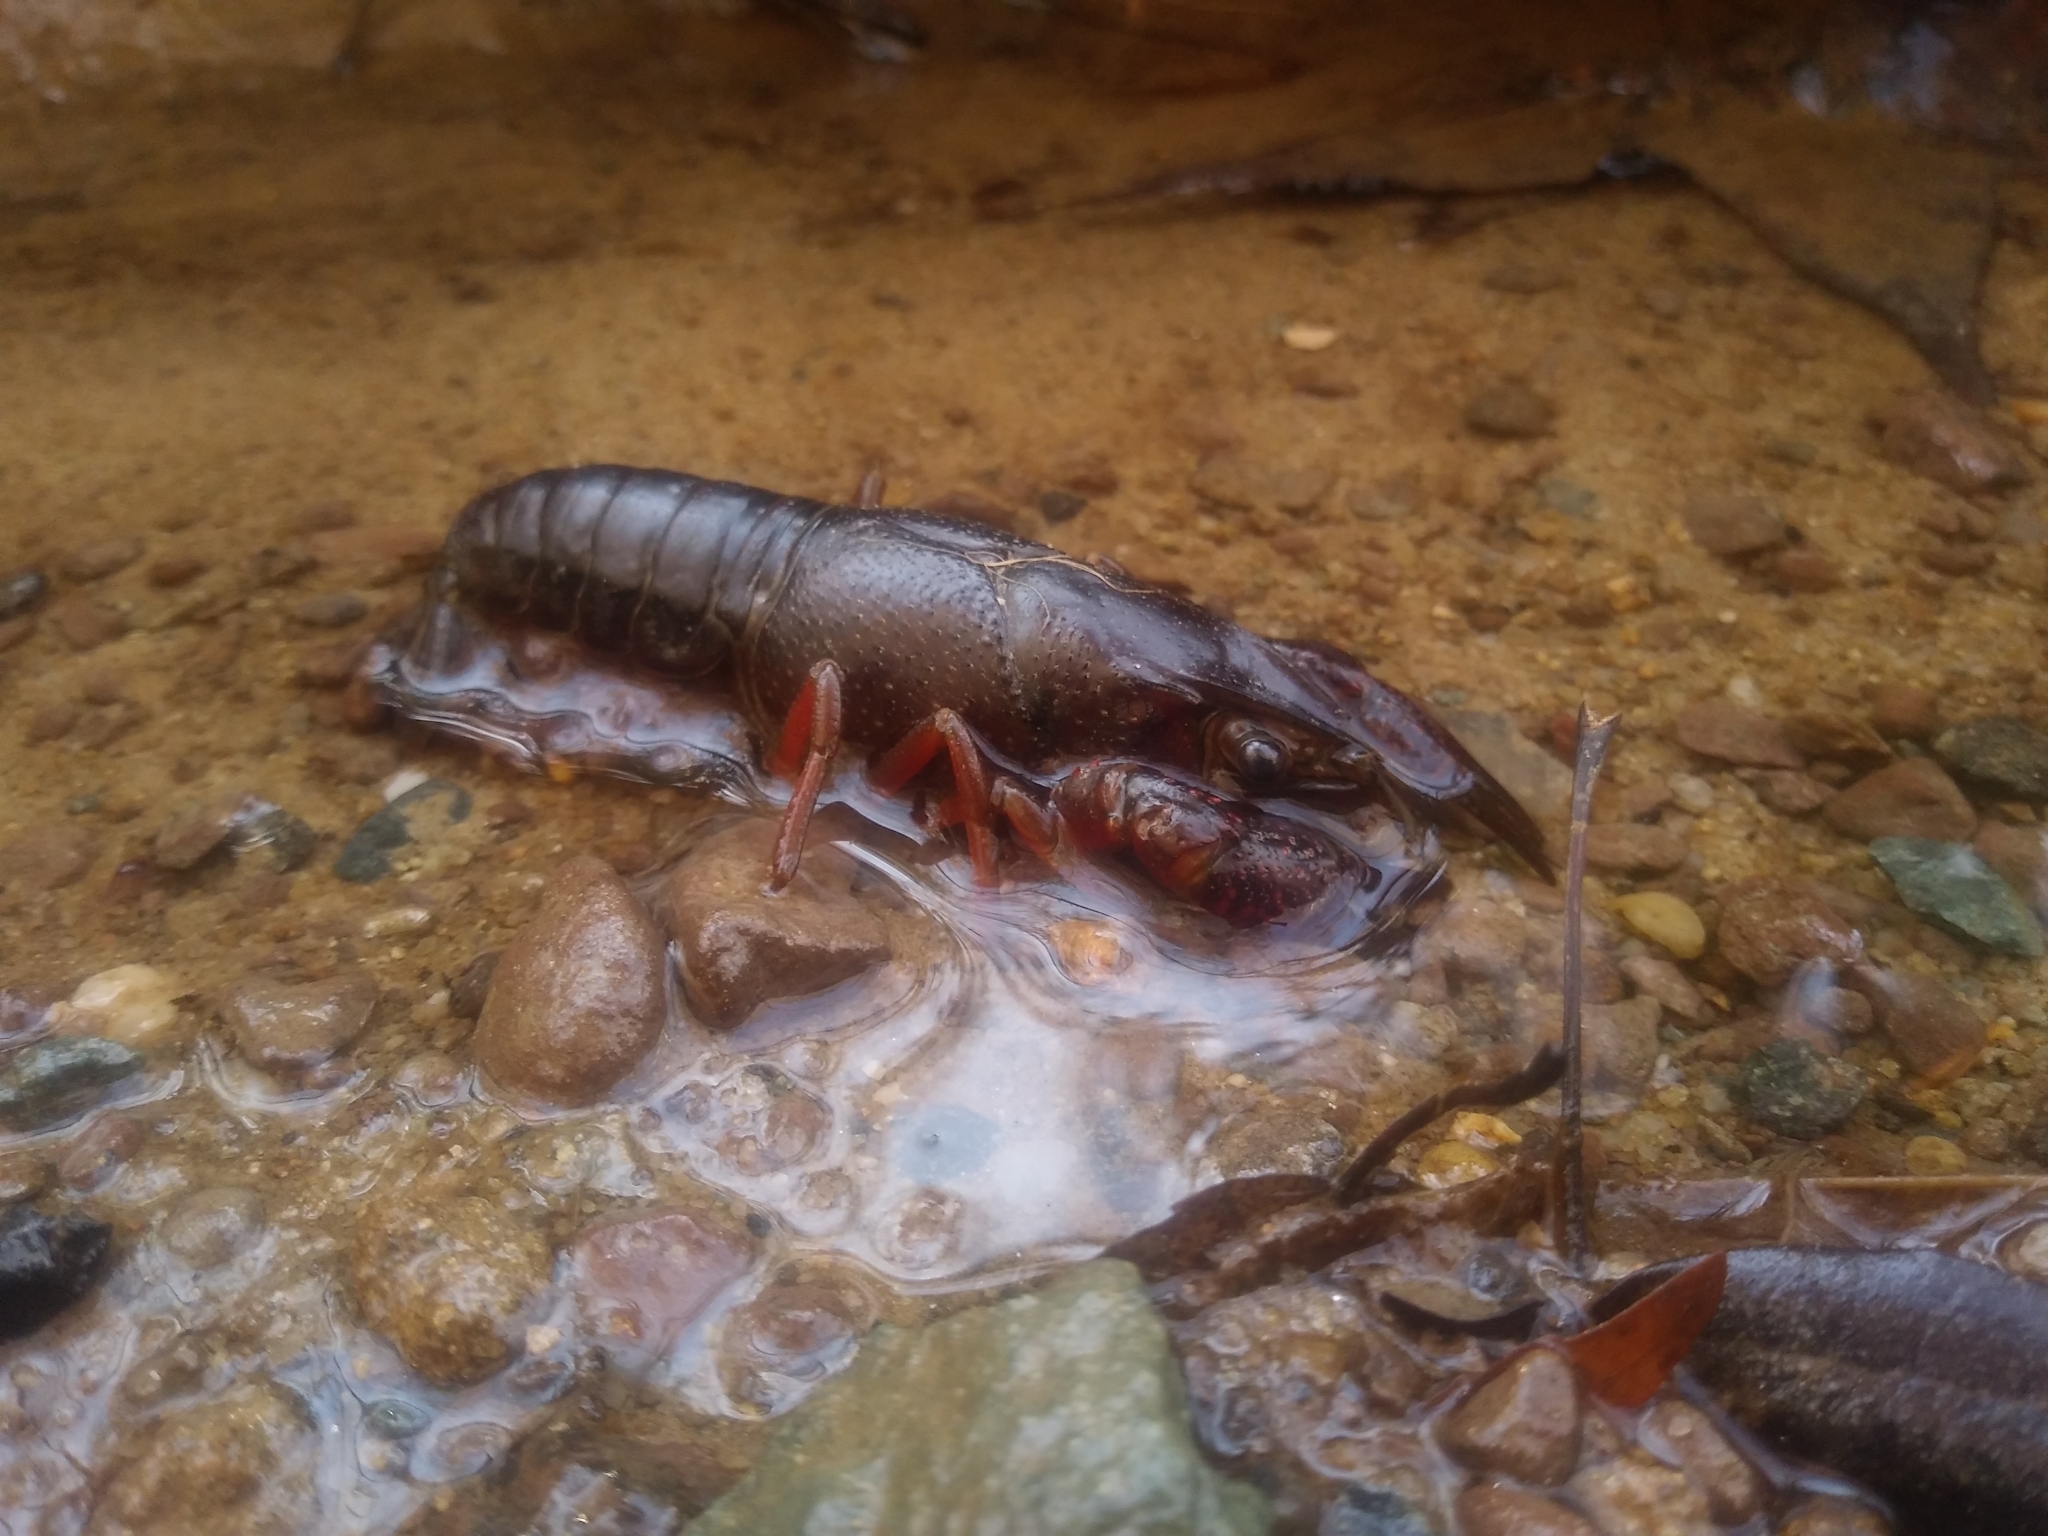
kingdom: Animalia
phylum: Arthropoda
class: Malacostraca
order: Decapoda
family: Cambaridae
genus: Procambarus
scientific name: Procambarus clarkii
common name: Red swamp crayfish
